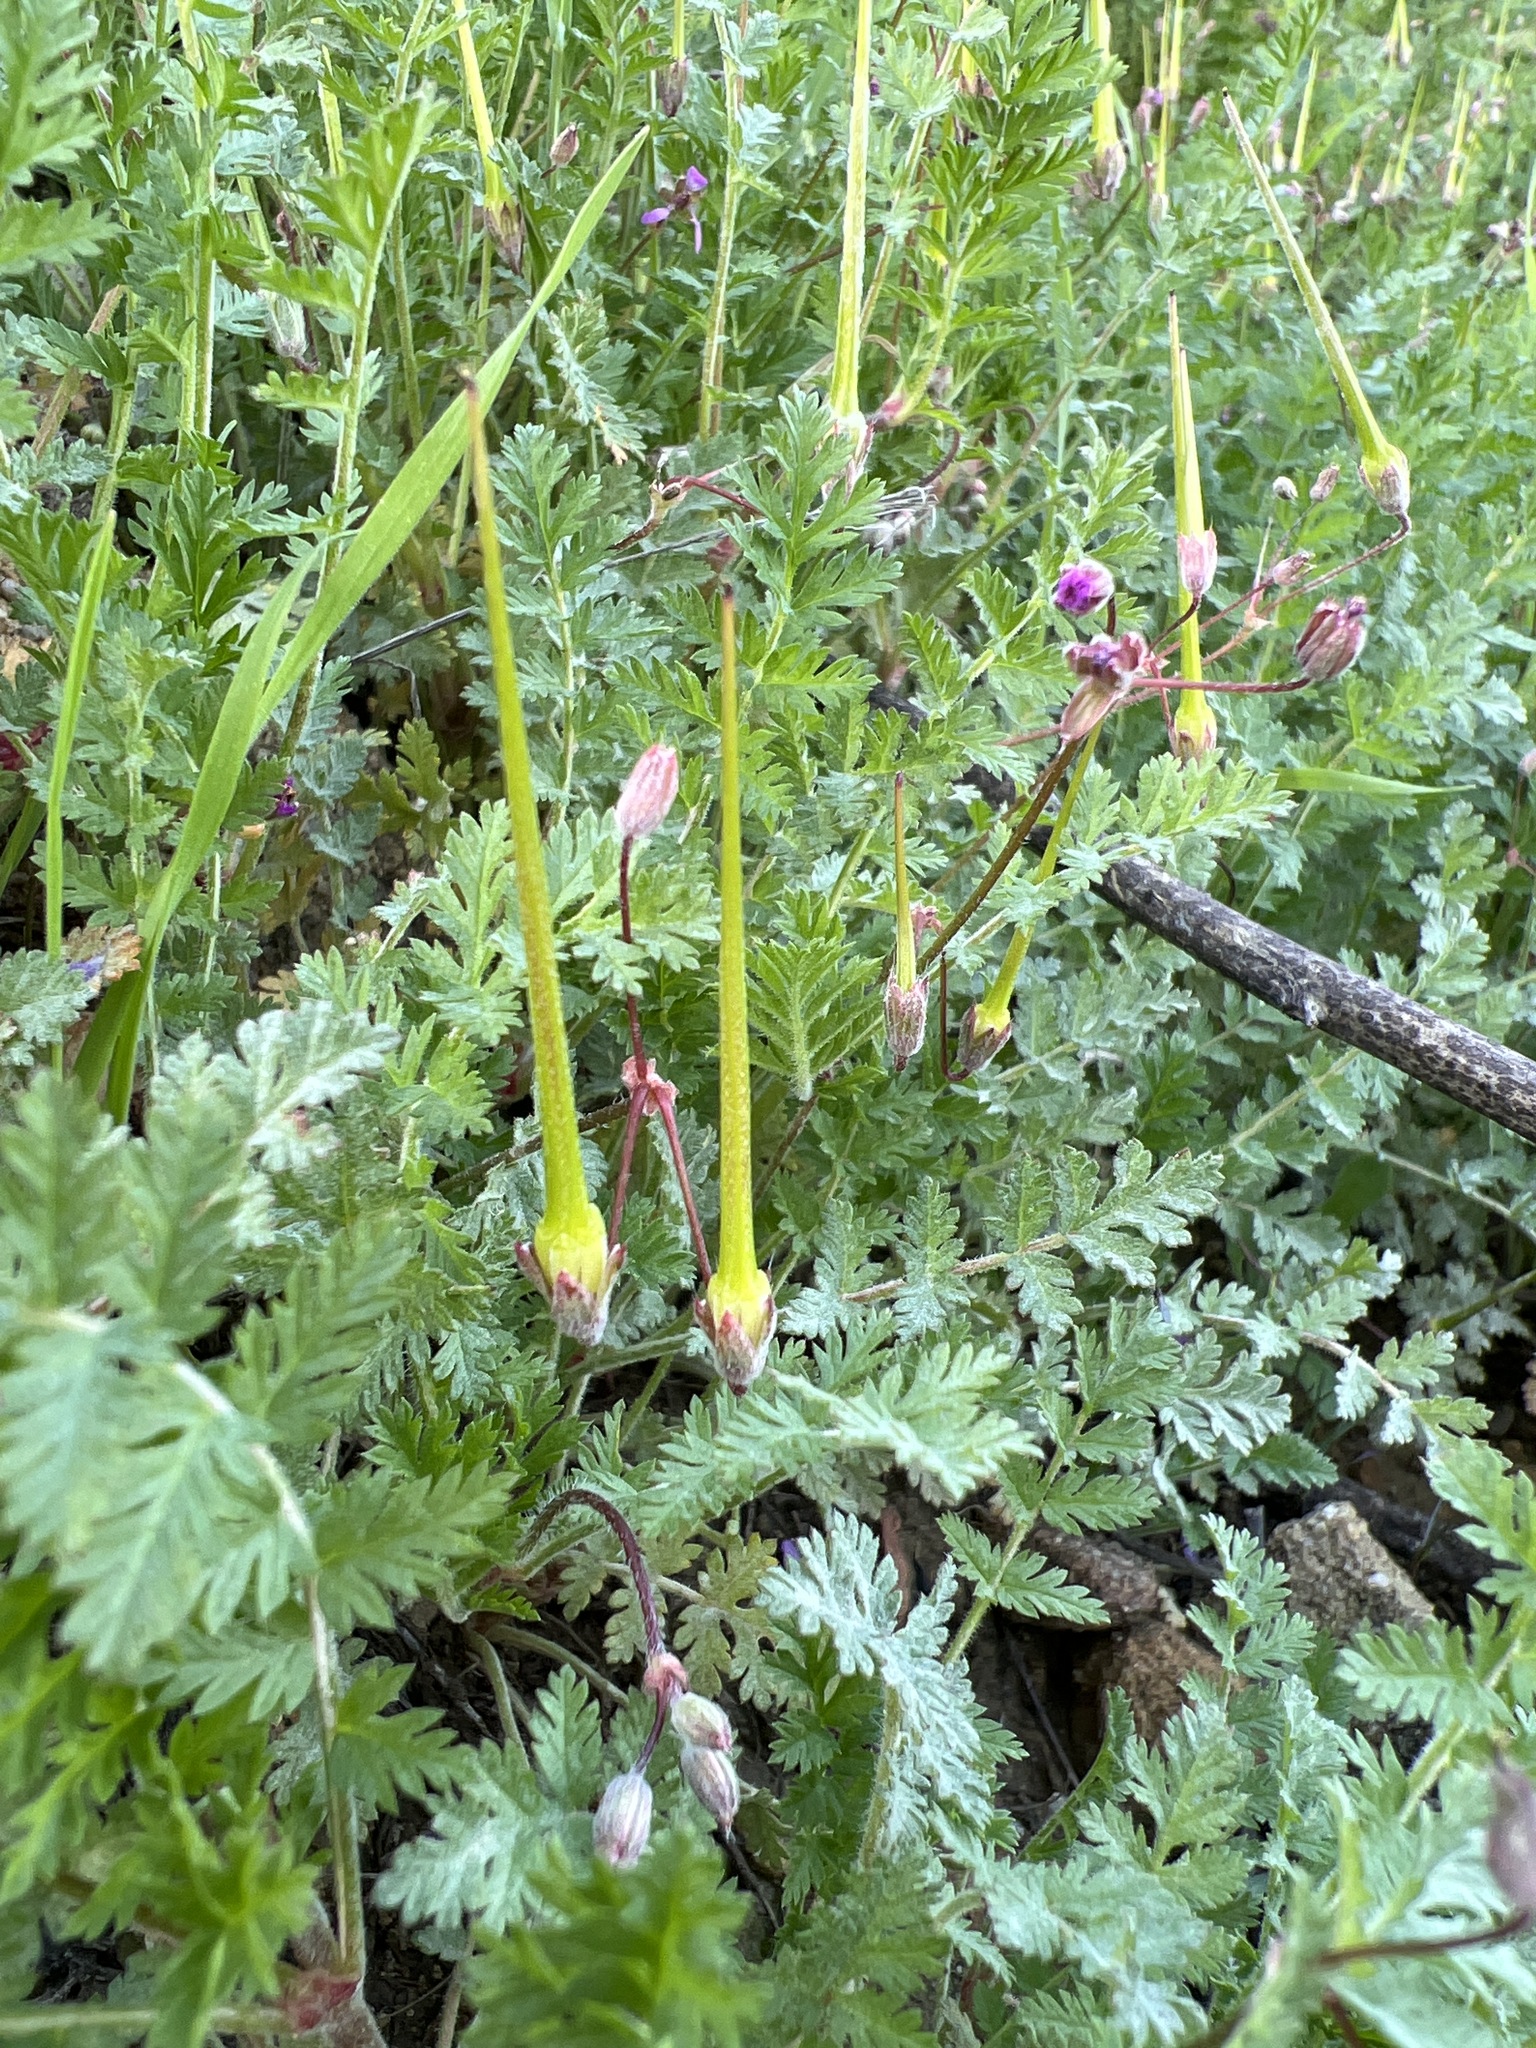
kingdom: Plantae
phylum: Tracheophyta
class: Magnoliopsida
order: Geraniales
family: Geraniaceae
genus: Erodium
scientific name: Erodium cicutarium
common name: Common stork's-bill
